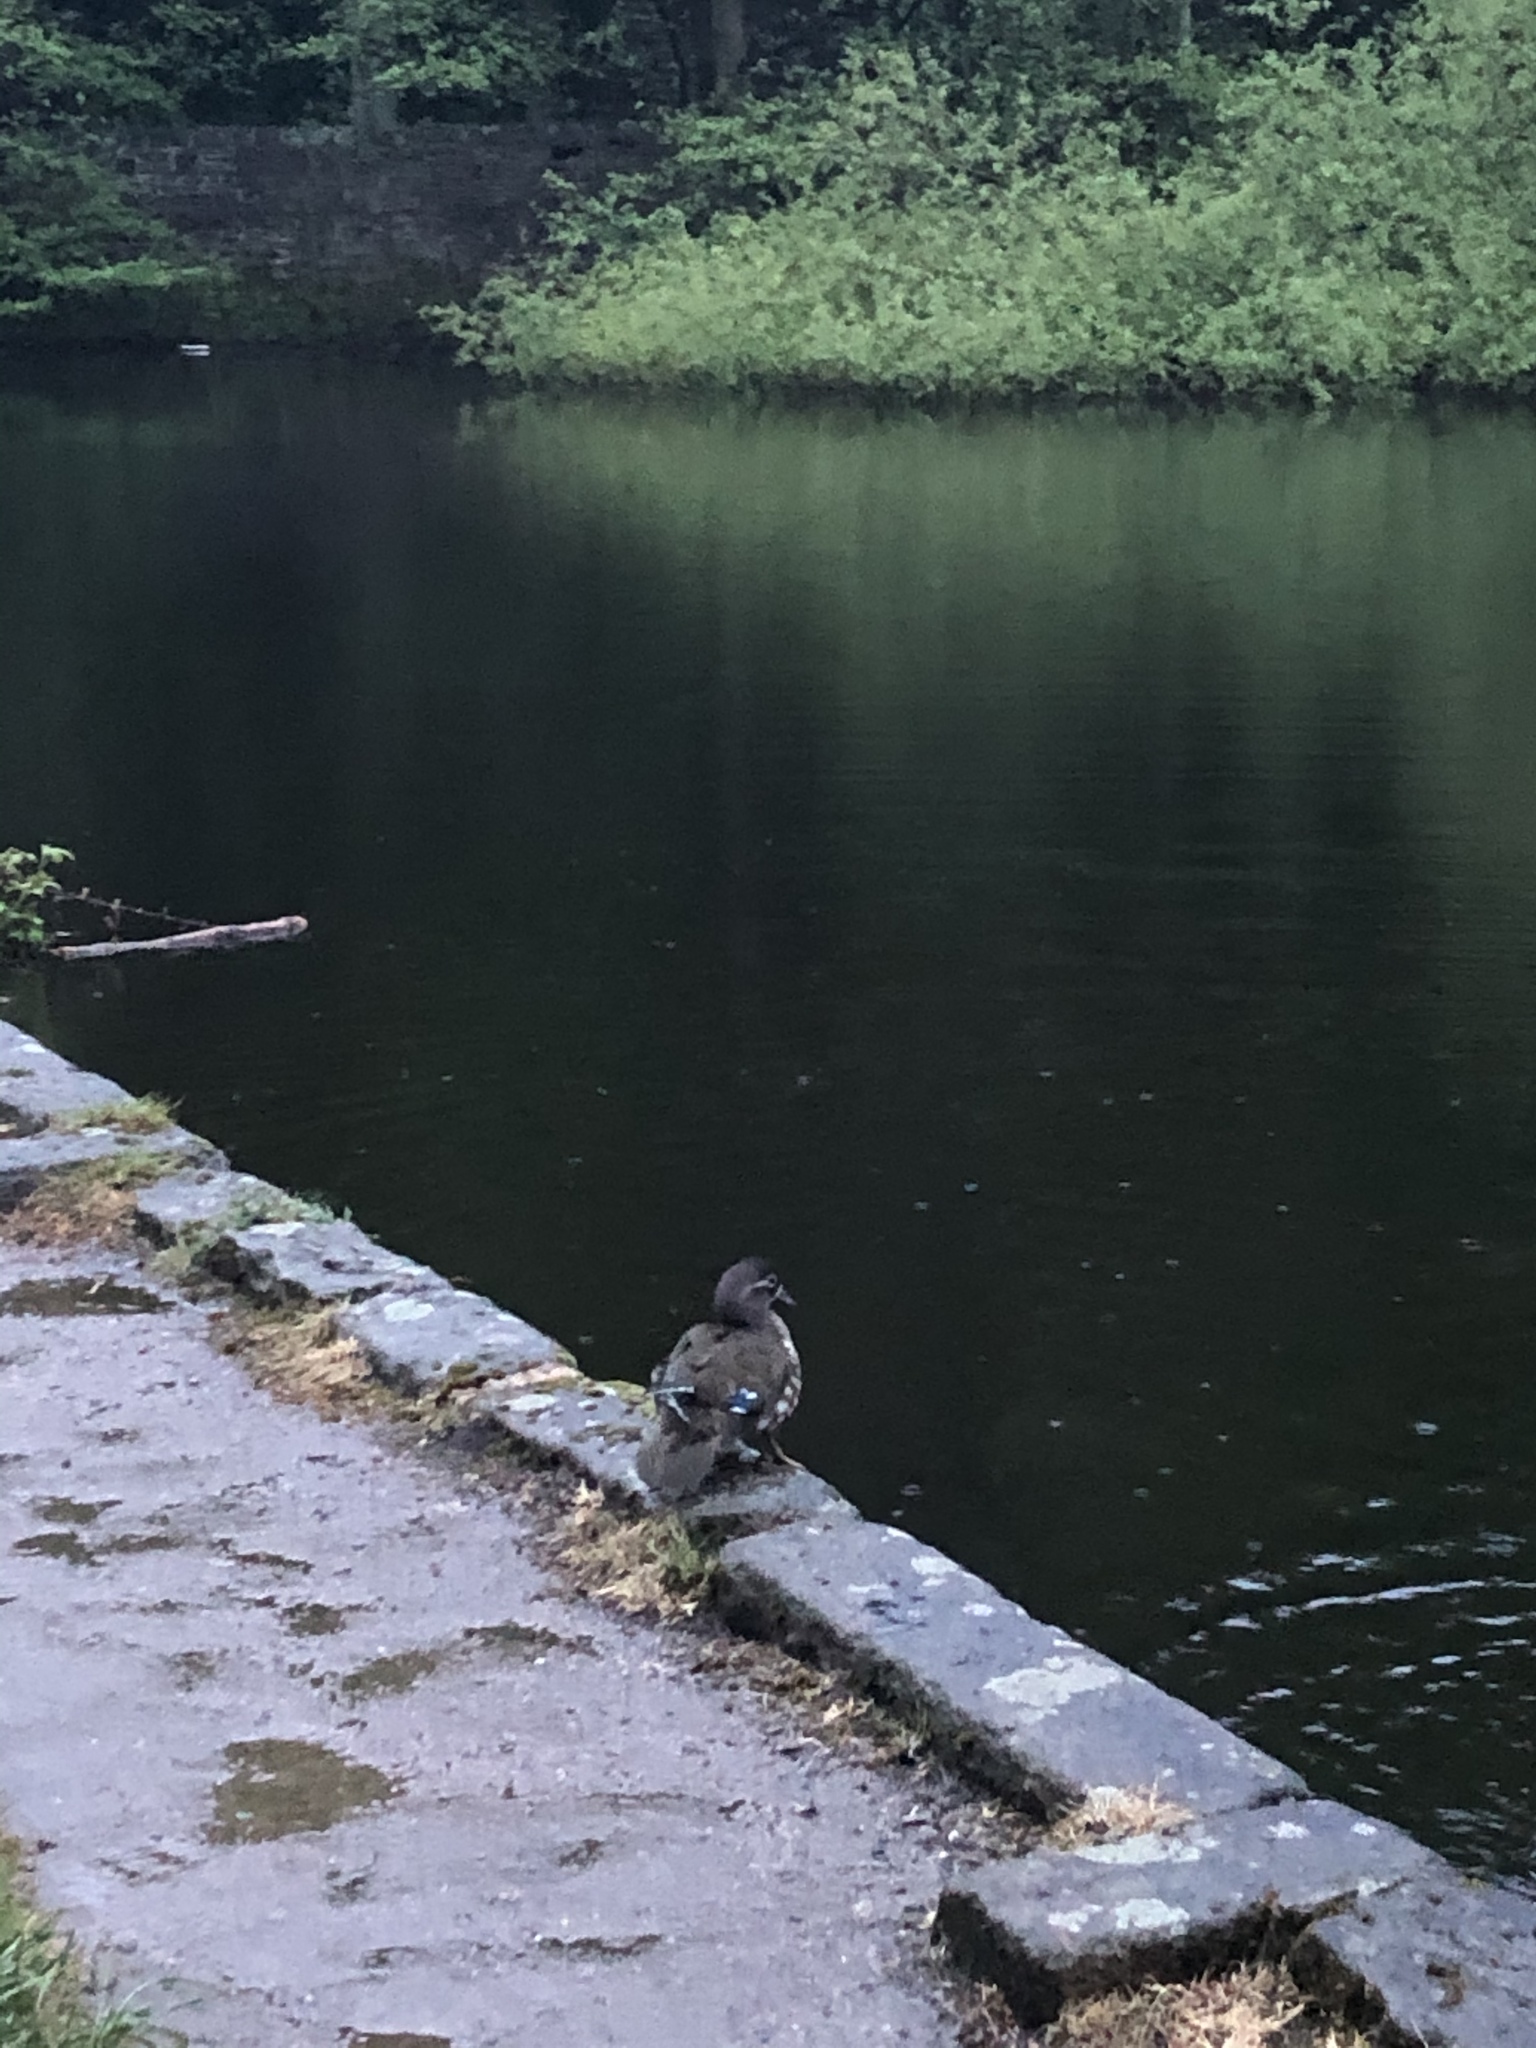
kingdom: Animalia
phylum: Chordata
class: Aves
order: Anseriformes
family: Anatidae
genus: Aix
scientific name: Aix galericulata
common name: Mandarin duck
